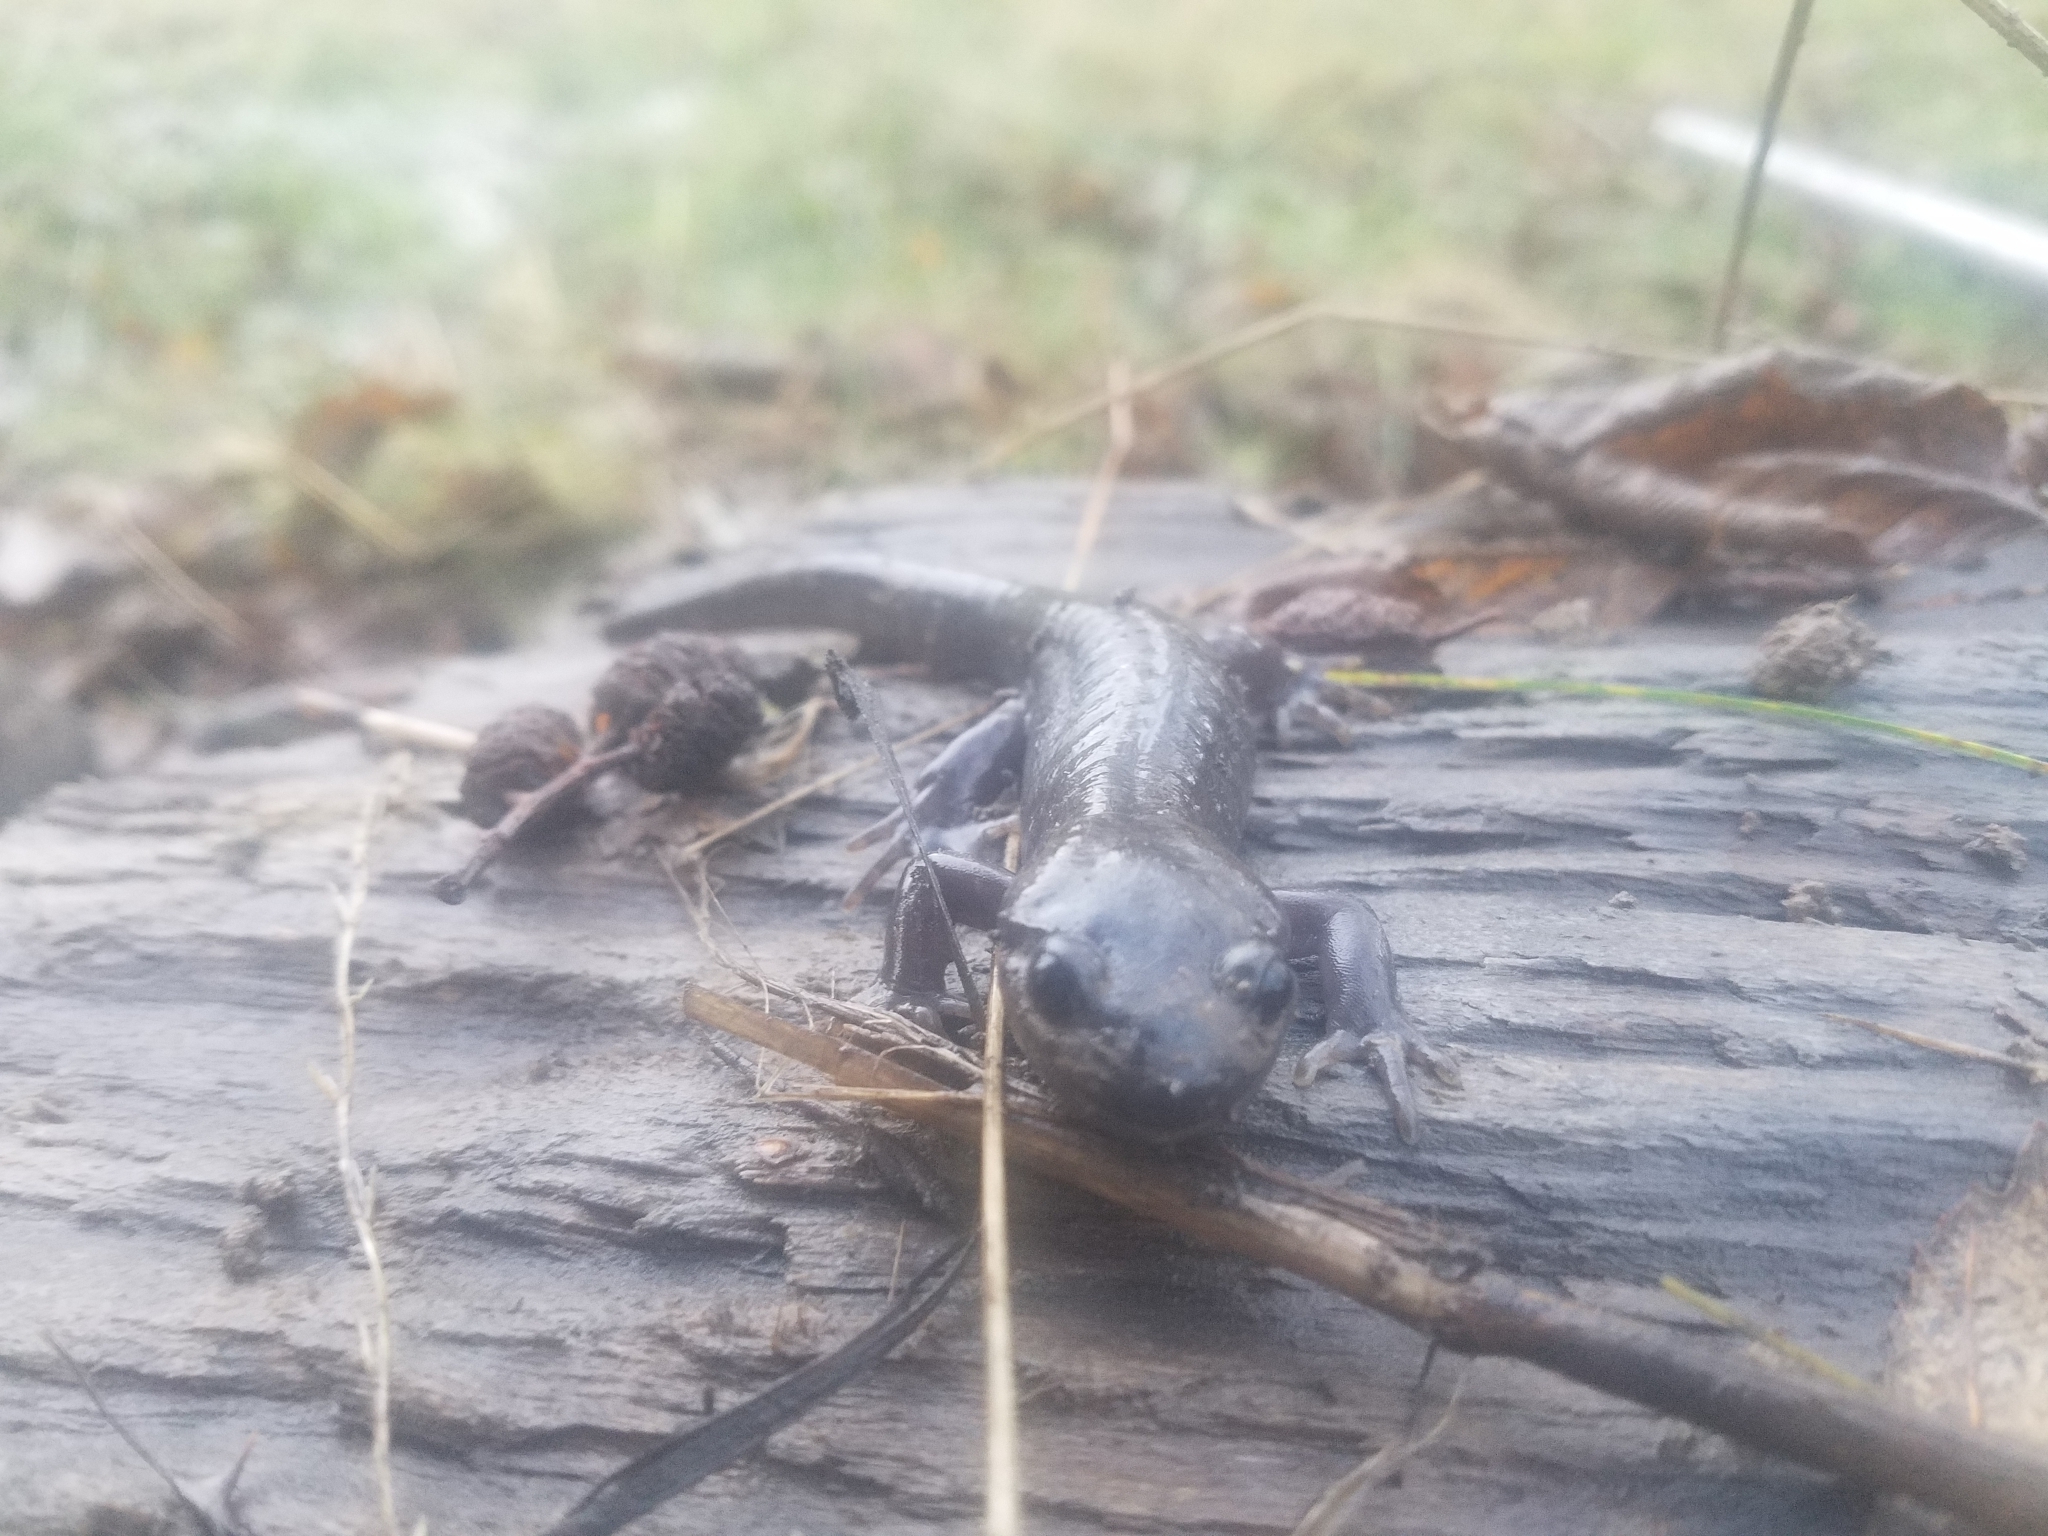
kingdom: Animalia
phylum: Chordata
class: Amphibia
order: Caudata
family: Ambystomatidae
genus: Ambystoma
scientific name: Ambystoma gracile
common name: Northwestern salamander
